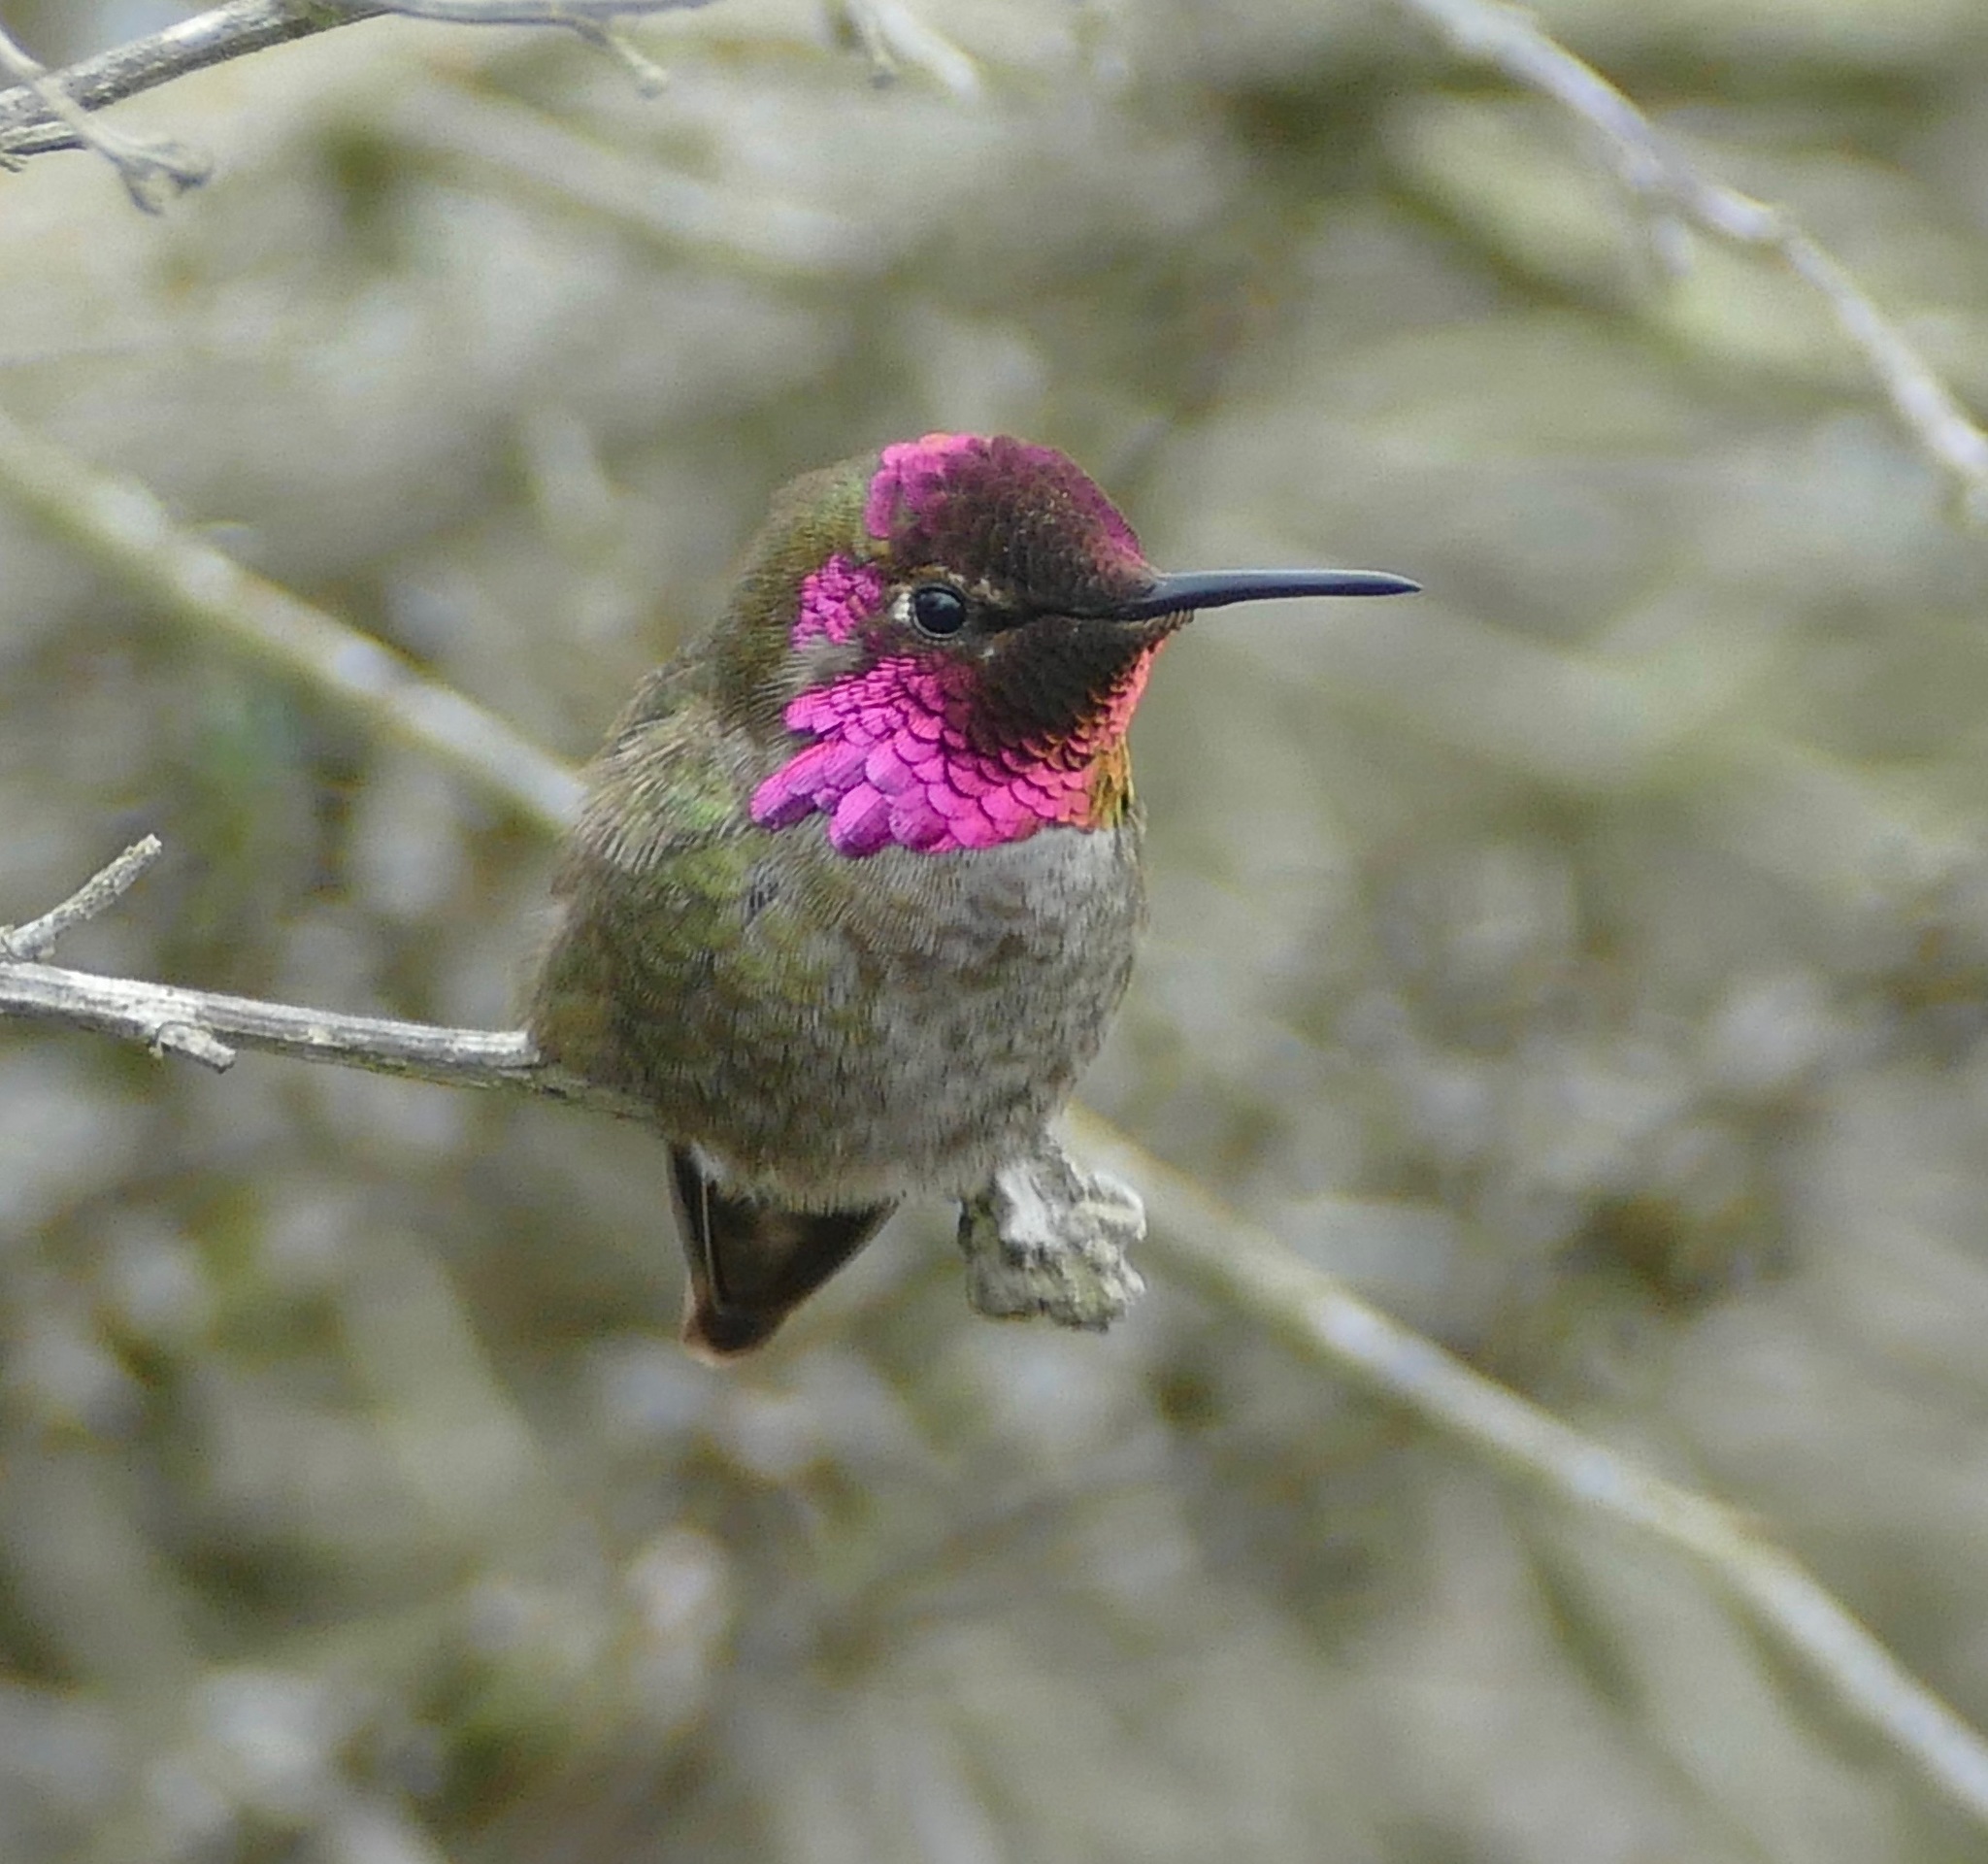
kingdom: Animalia
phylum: Chordata
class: Aves
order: Apodiformes
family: Trochilidae
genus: Calypte
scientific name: Calypte anna
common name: Anna's hummingbird
